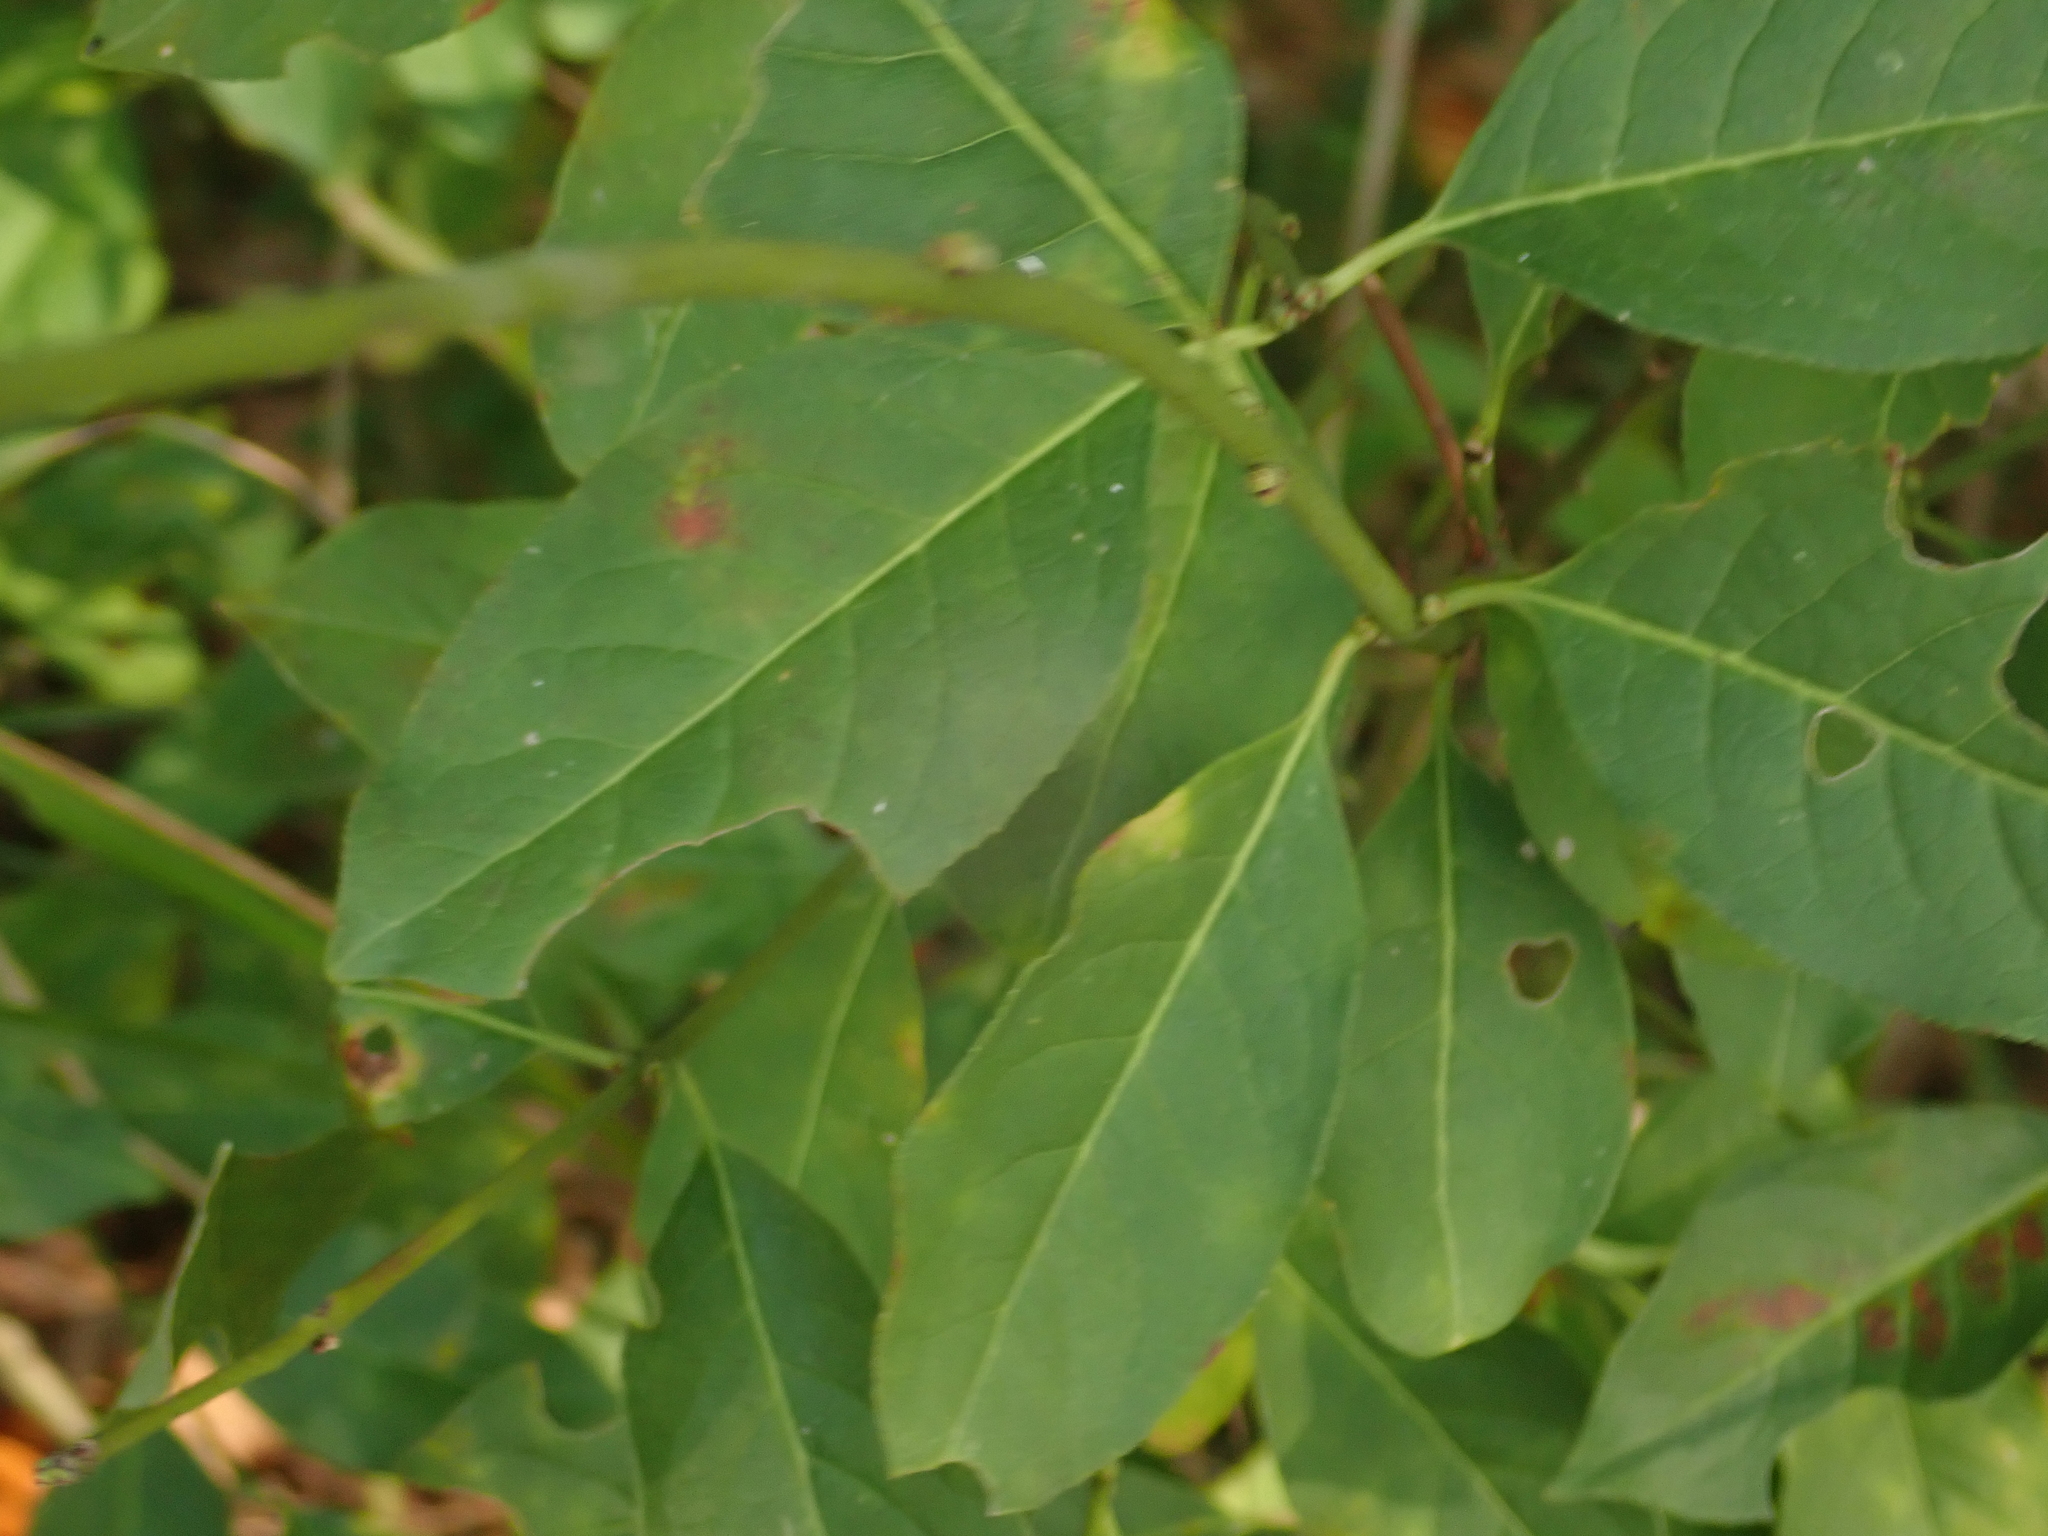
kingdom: Plantae
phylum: Tracheophyta
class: Magnoliopsida
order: Celastrales
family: Celastraceae
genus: Euonymus
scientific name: Euonymus europaeus
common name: Spindle
